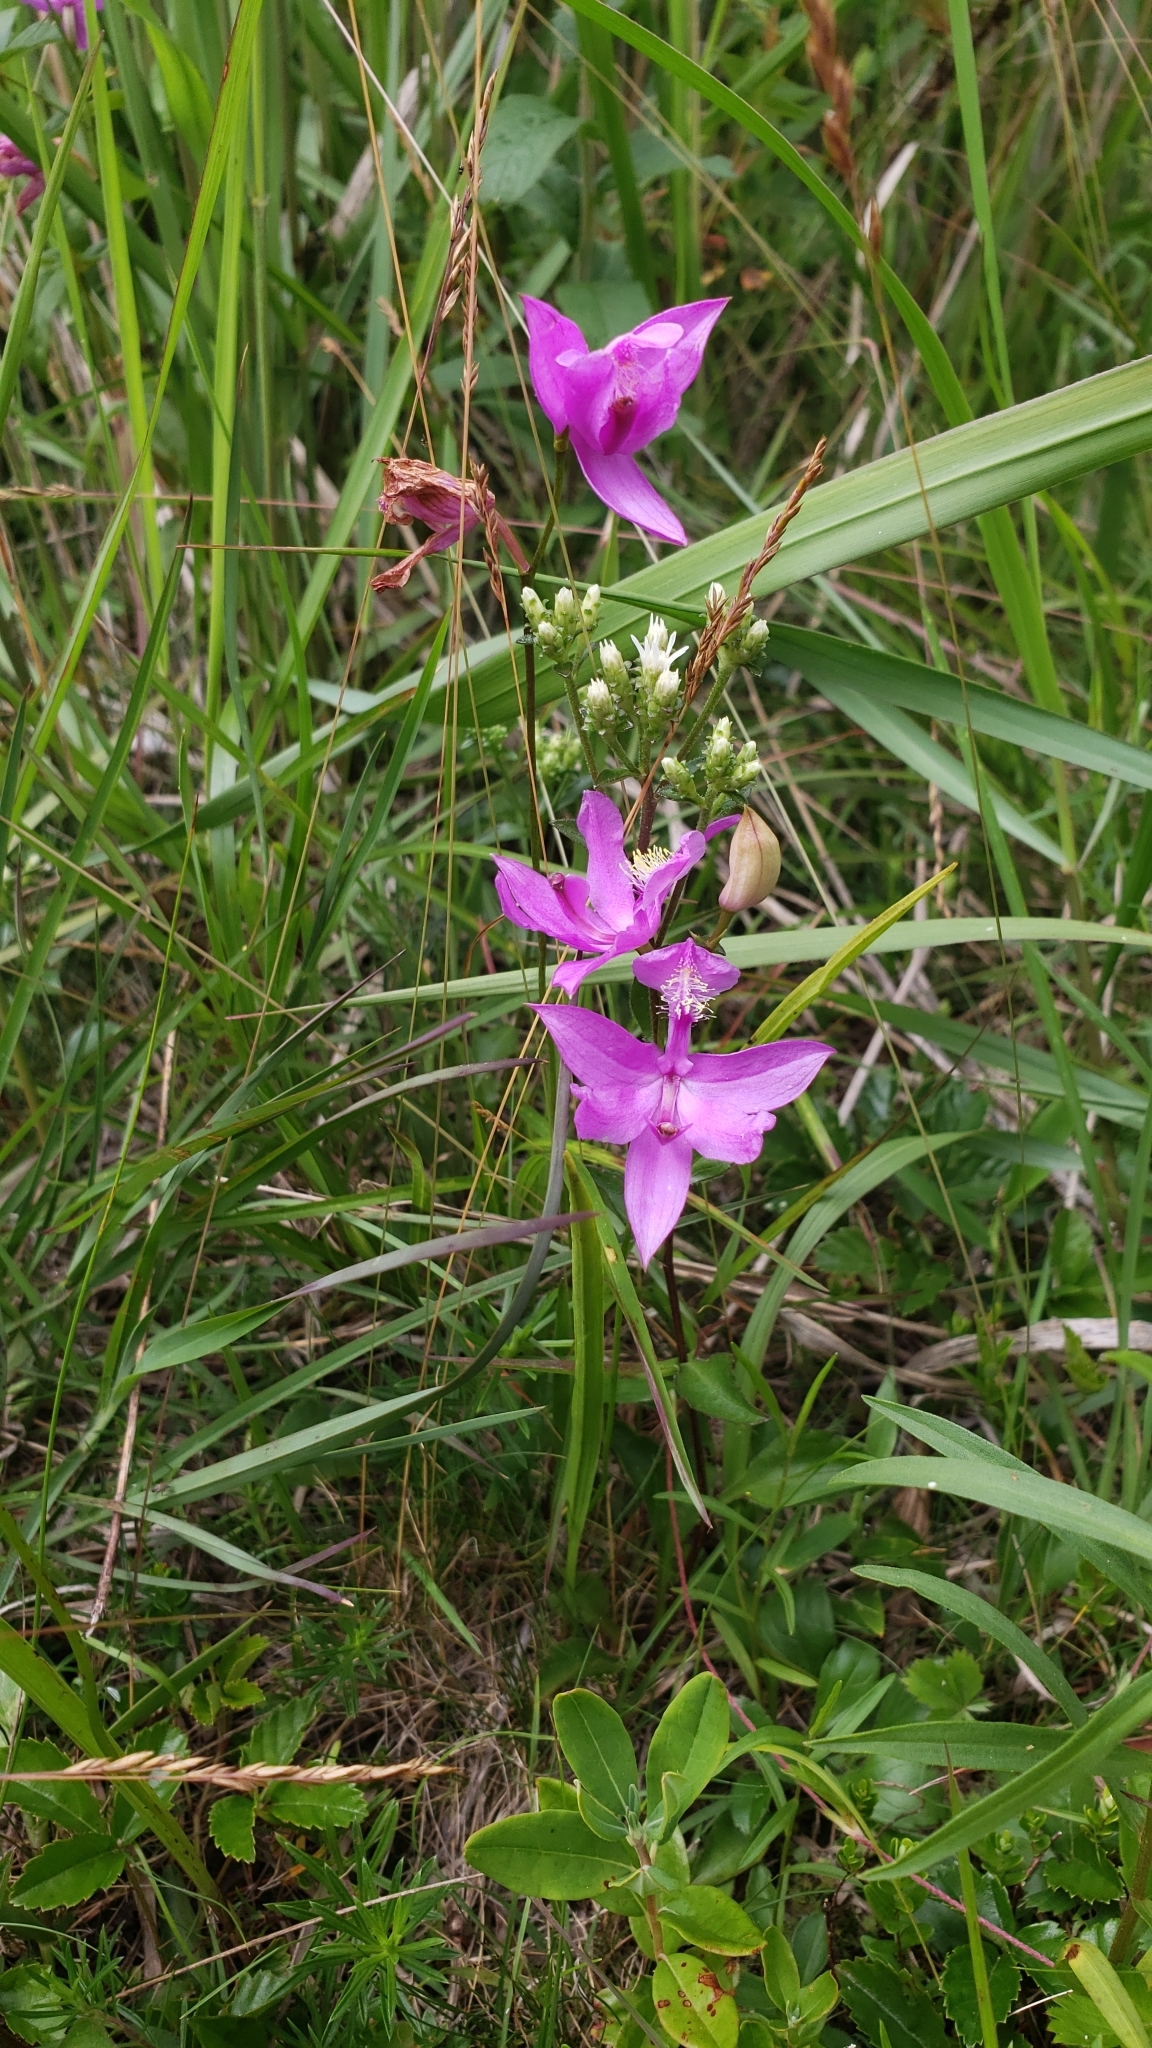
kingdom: Plantae
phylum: Tracheophyta
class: Liliopsida
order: Asparagales
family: Orchidaceae
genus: Calopogon
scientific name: Calopogon tuberosus
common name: Grass-pink
